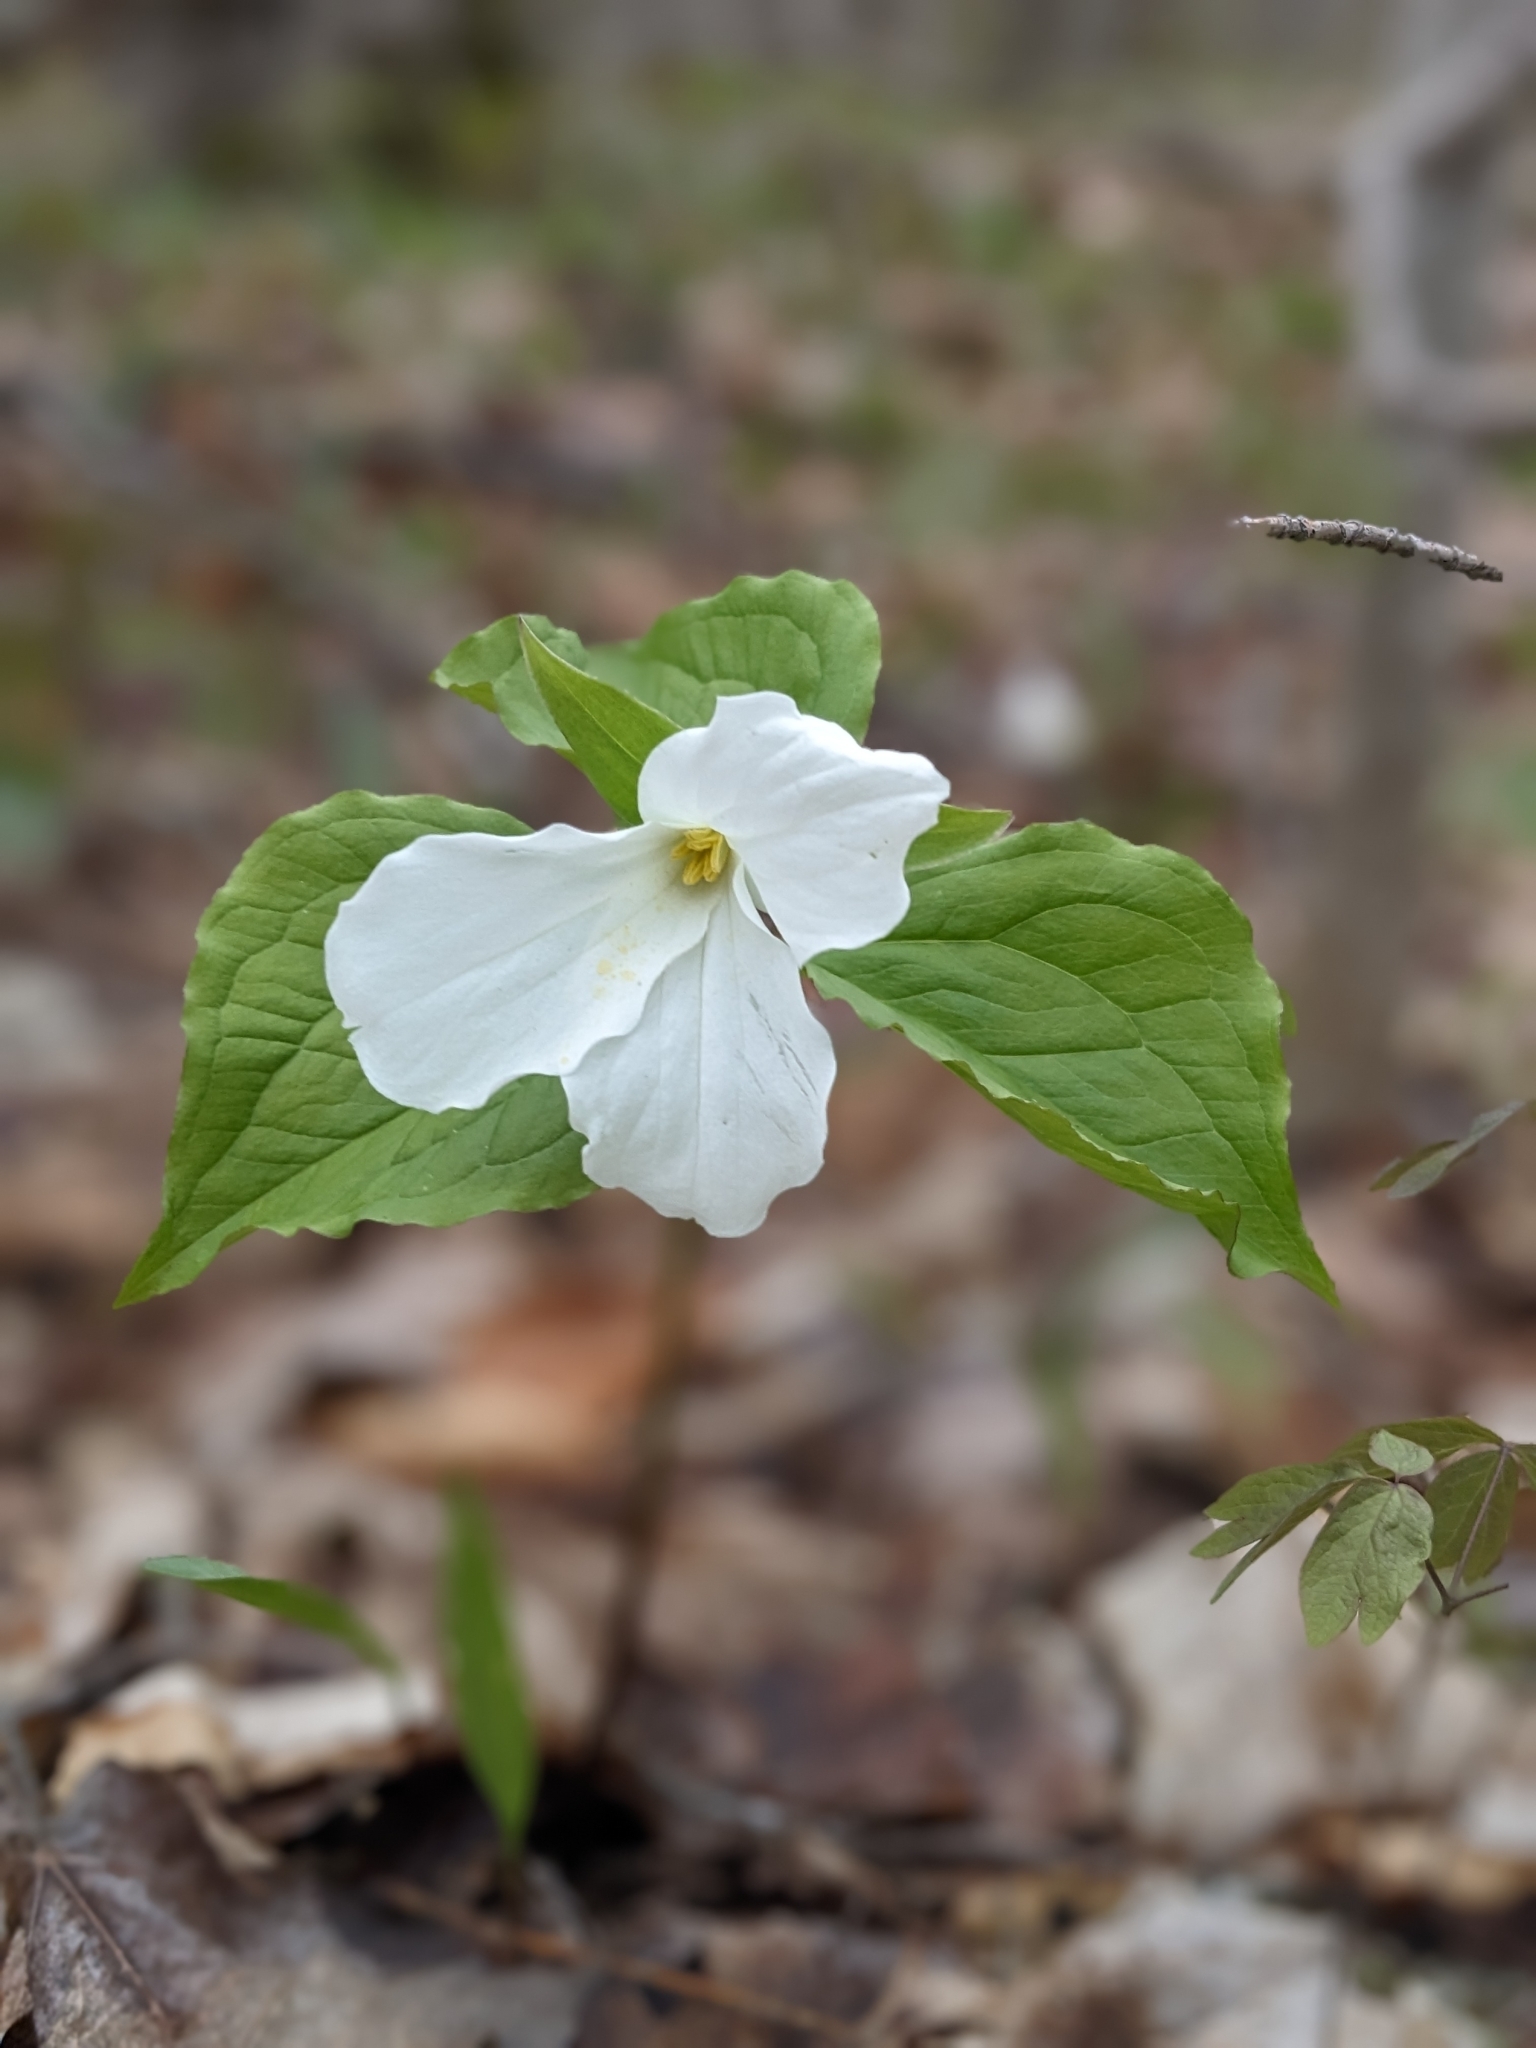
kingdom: Plantae
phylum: Tracheophyta
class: Liliopsida
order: Liliales
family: Melanthiaceae
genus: Trillium
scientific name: Trillium grandiflorum
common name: Great white trillium
